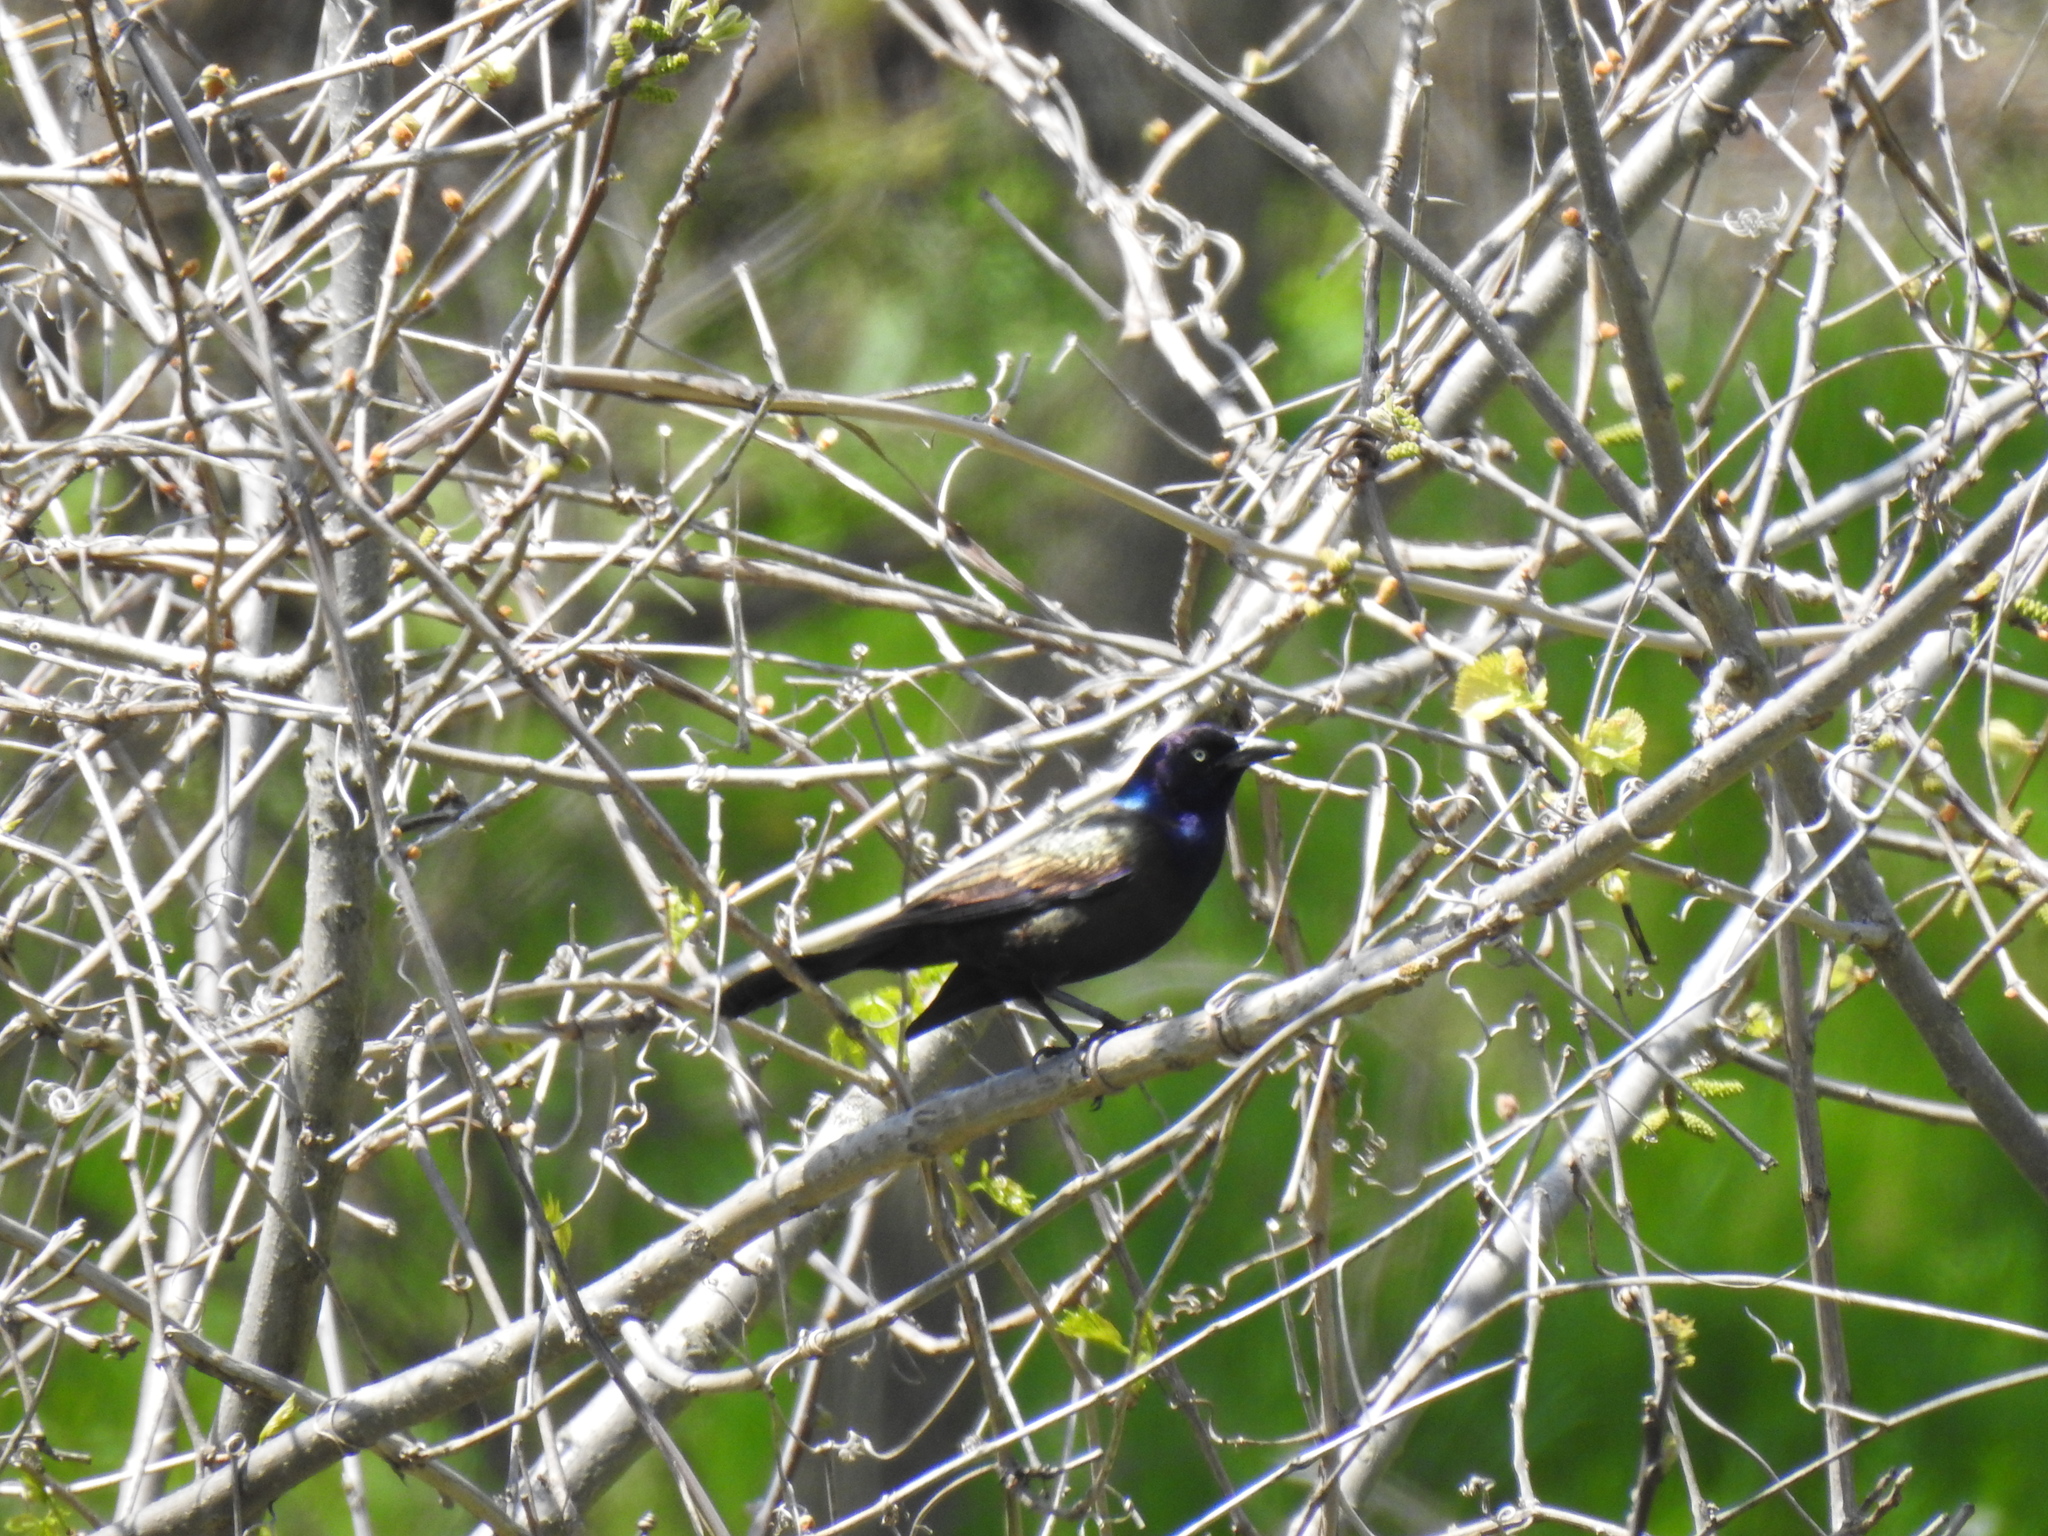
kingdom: Animalia
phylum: Chordata
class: Aves
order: Passeriformes
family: Icteridae
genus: Quiscalus
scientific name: Quiscalus quiscula
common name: Common grackle
